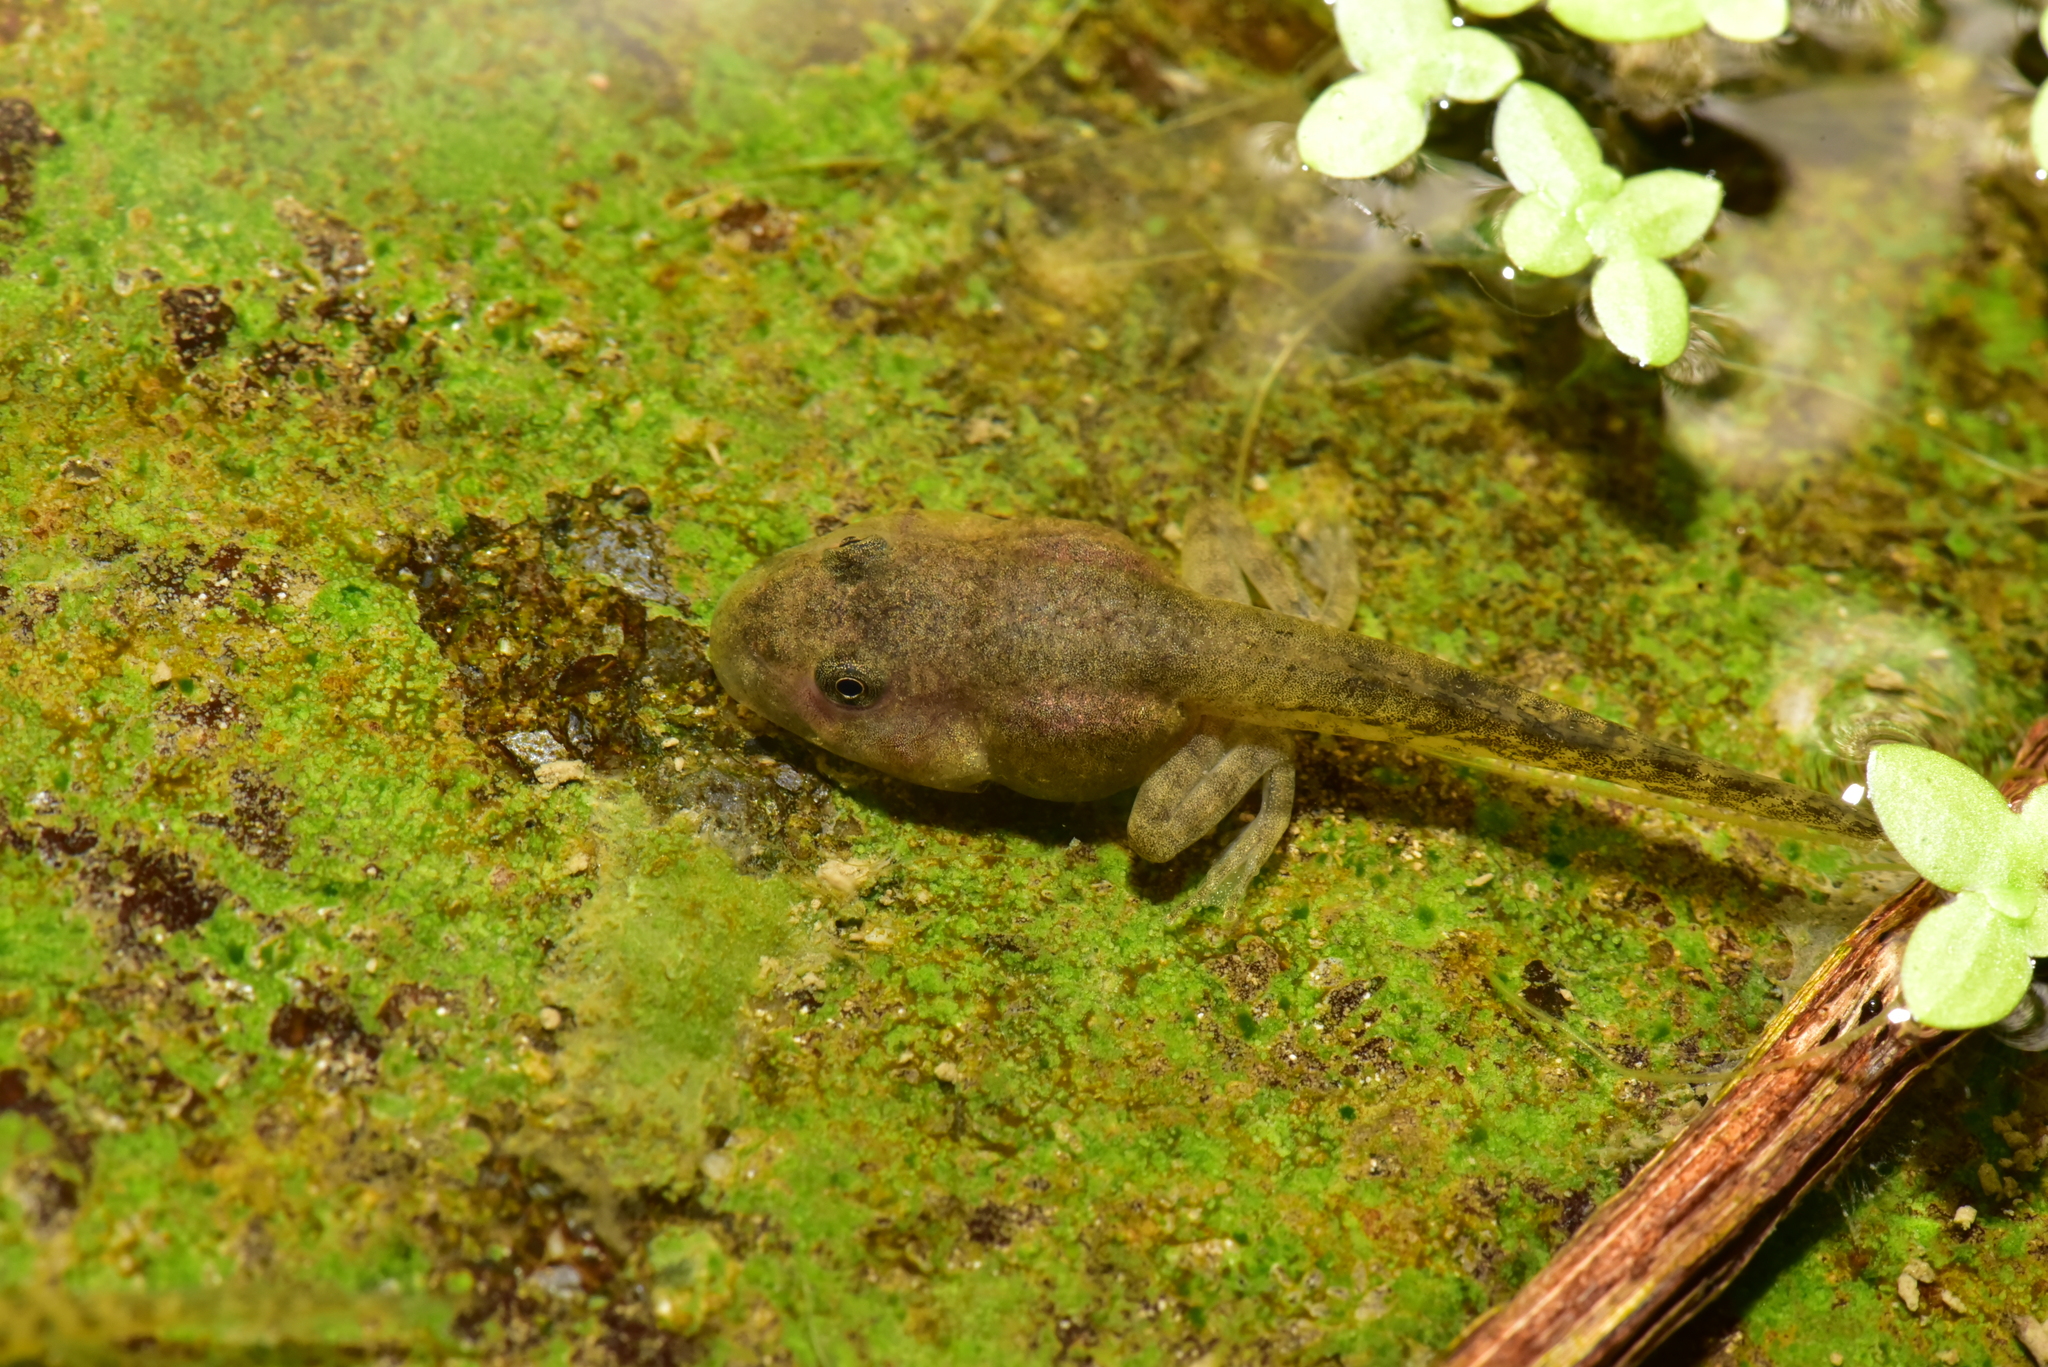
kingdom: Animalia
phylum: Chordata
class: Amphibia
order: Anura
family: Rhacophoridae
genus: Buergeria
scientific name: Buergeria otai
